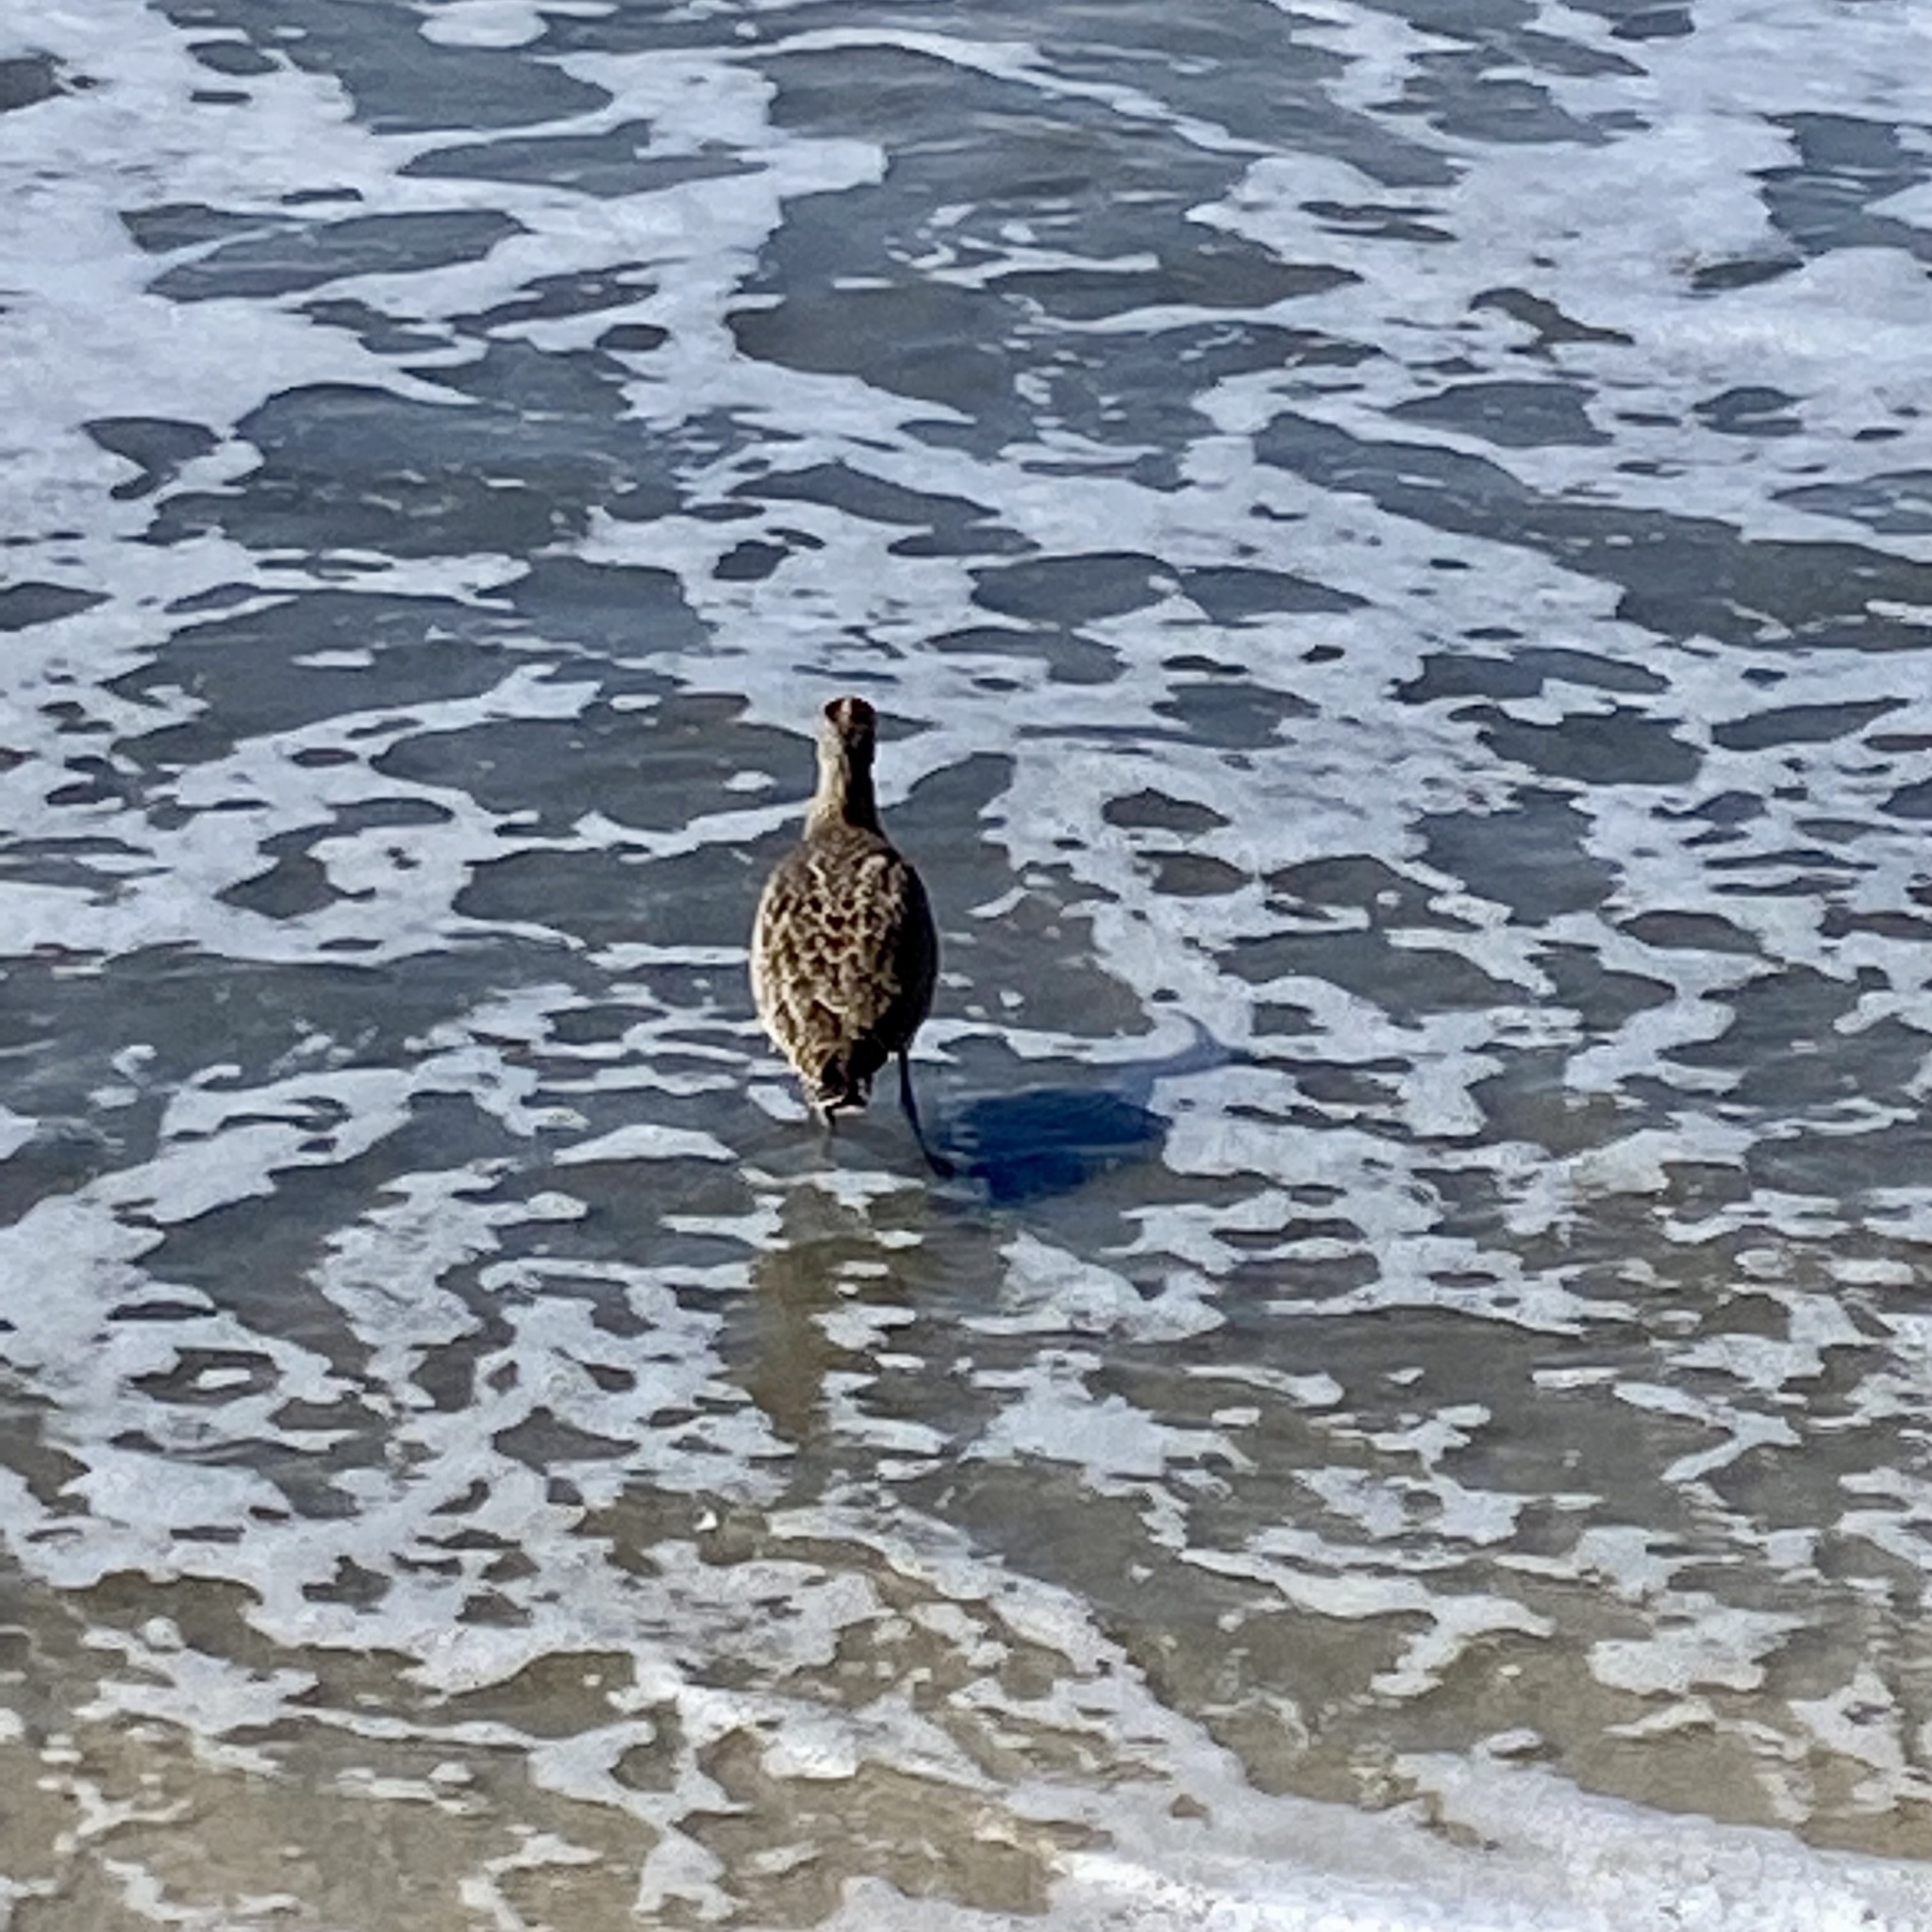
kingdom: Animalia
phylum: Chordata
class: Aves
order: Charadriiformes
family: Scolopacidae
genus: Numenius
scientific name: Numenius phaeopus
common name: Whimbrel
